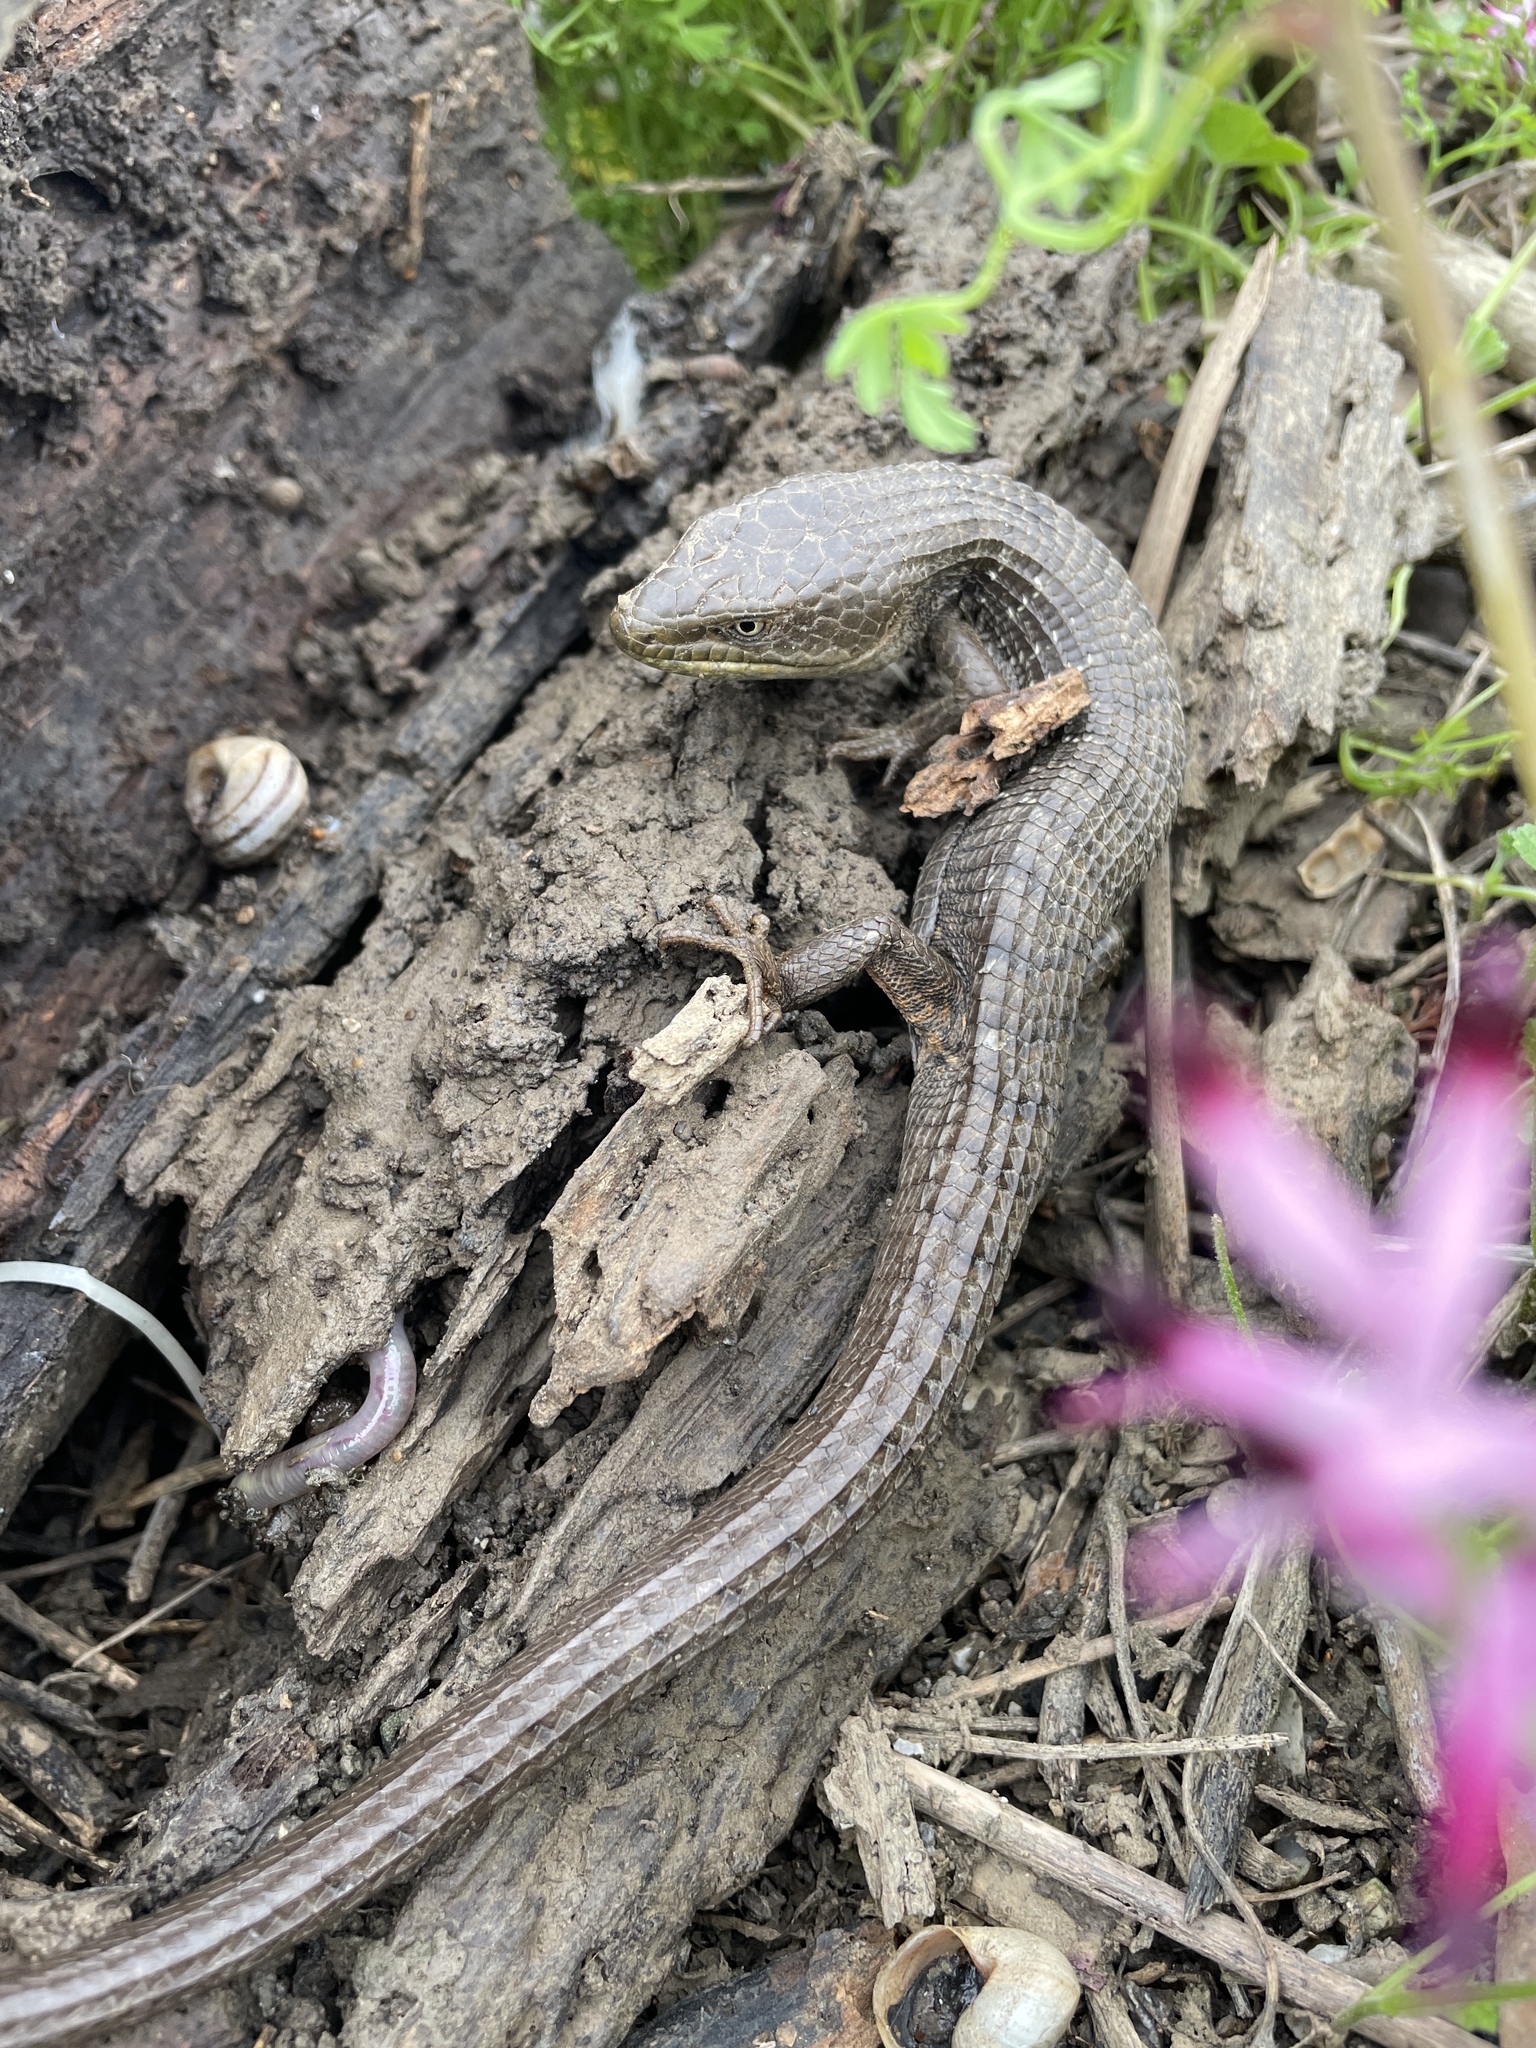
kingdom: Animalia
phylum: Chordata
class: Squamata
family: Anguidae
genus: Elgaria
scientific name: Elgaria multicarinata
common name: Southern alligator lizard
